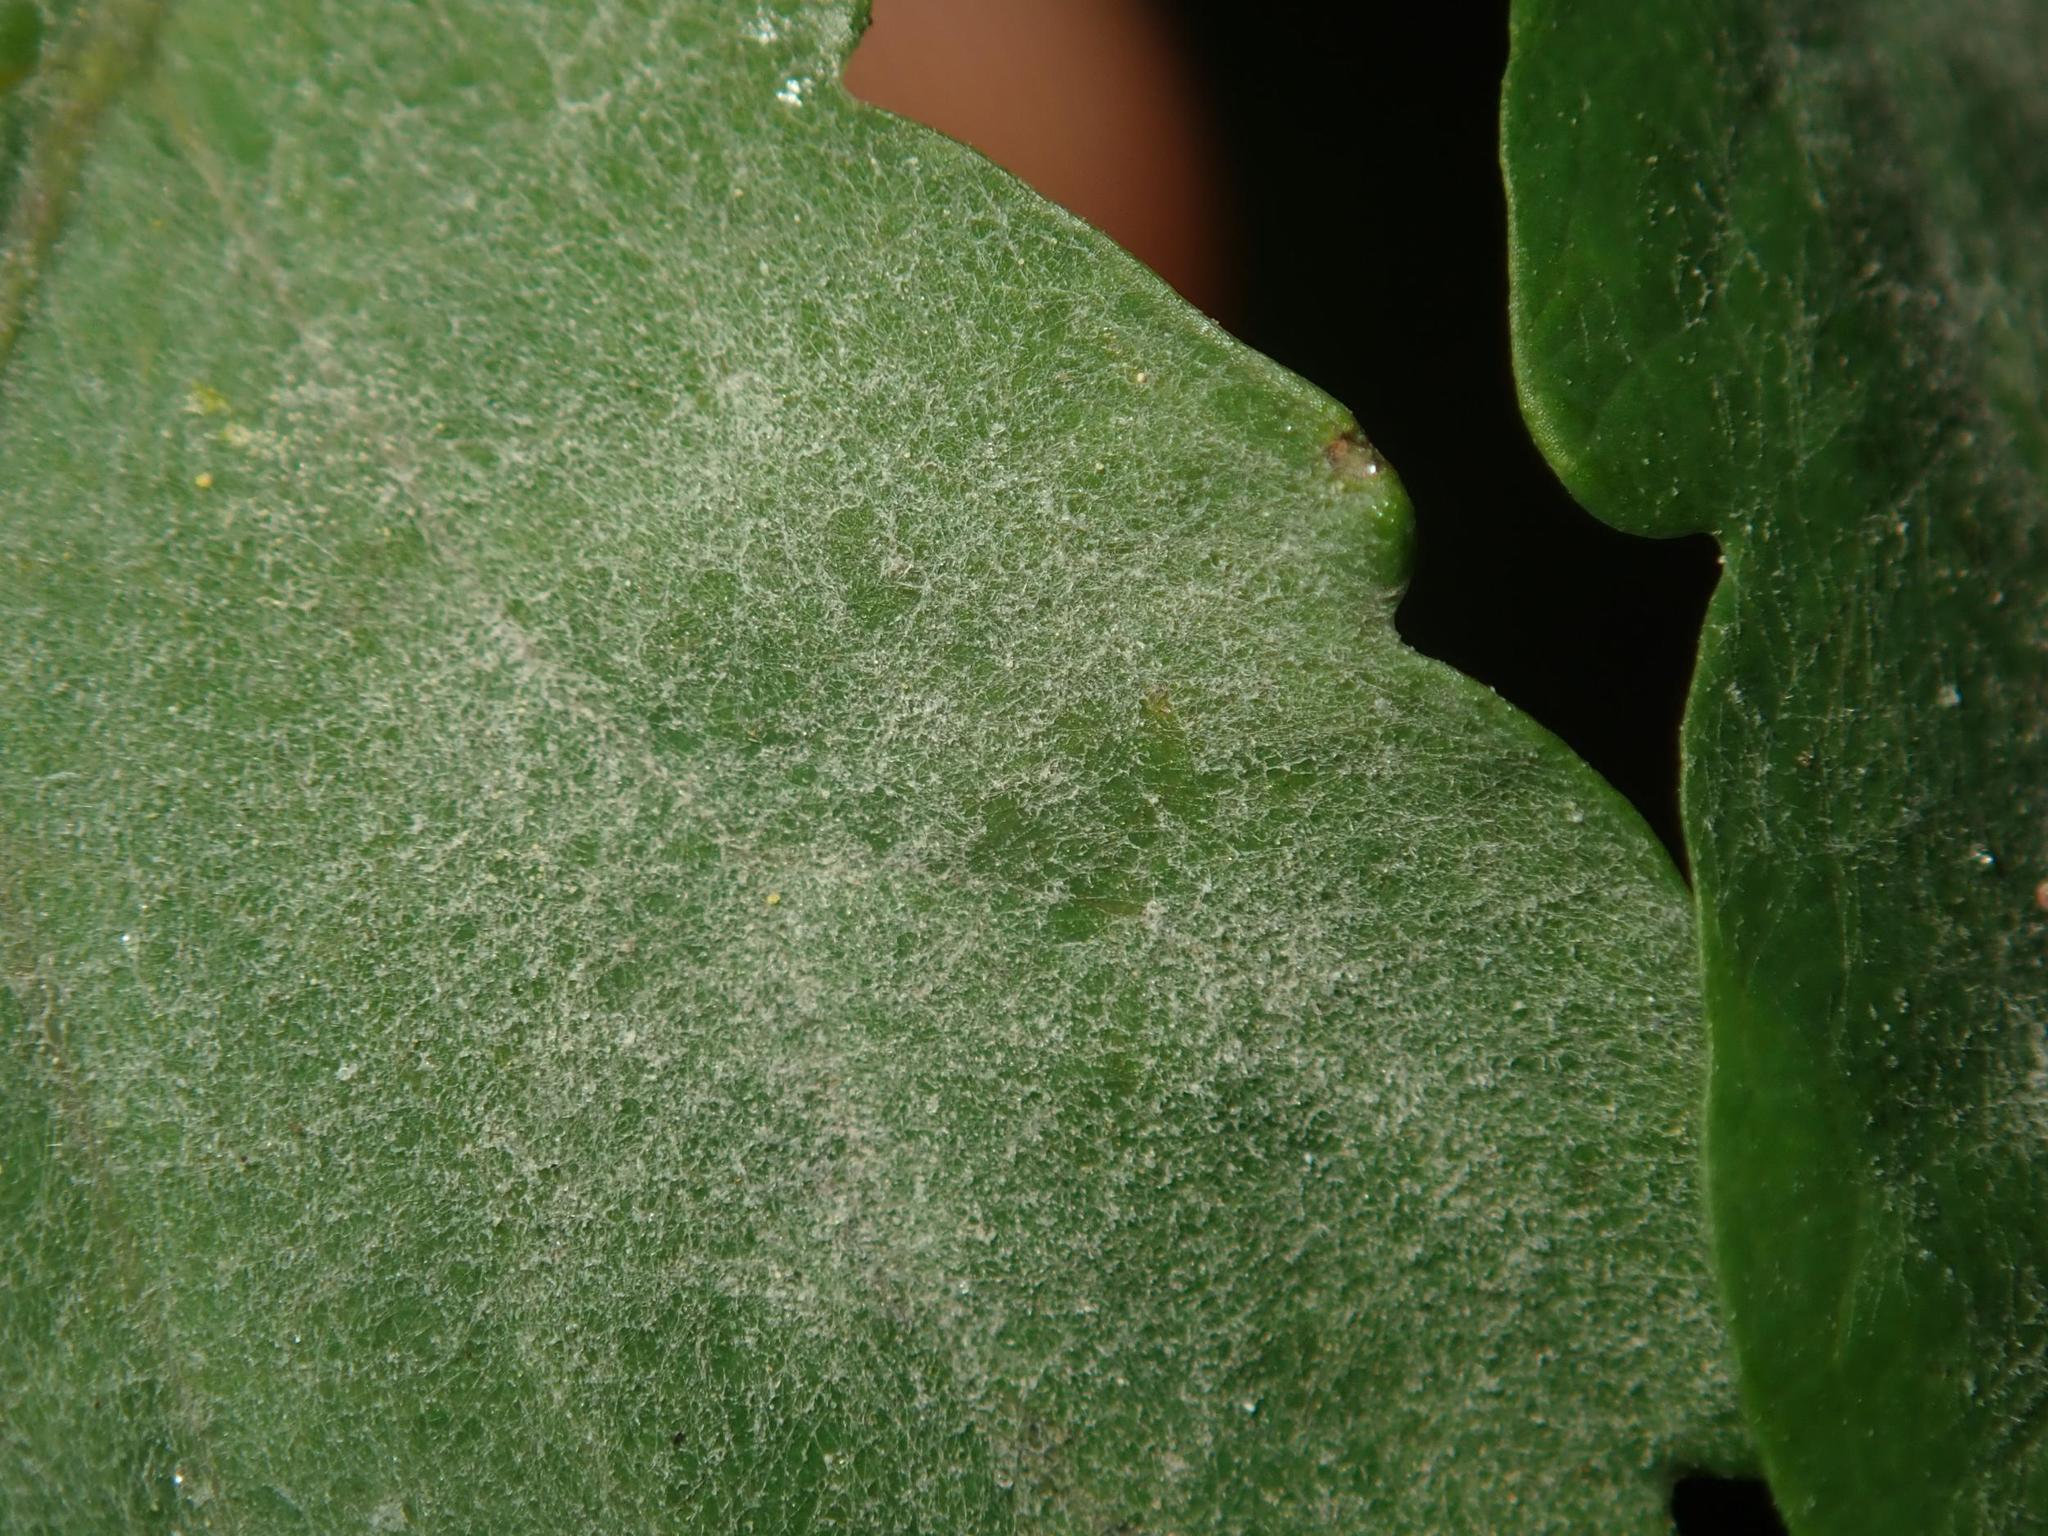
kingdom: Fungi
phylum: Ascomycota
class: Leotiomycetes
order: Helotiales
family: Erysiphaceae
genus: Erysiphe
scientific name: Erysiphe macleayae
